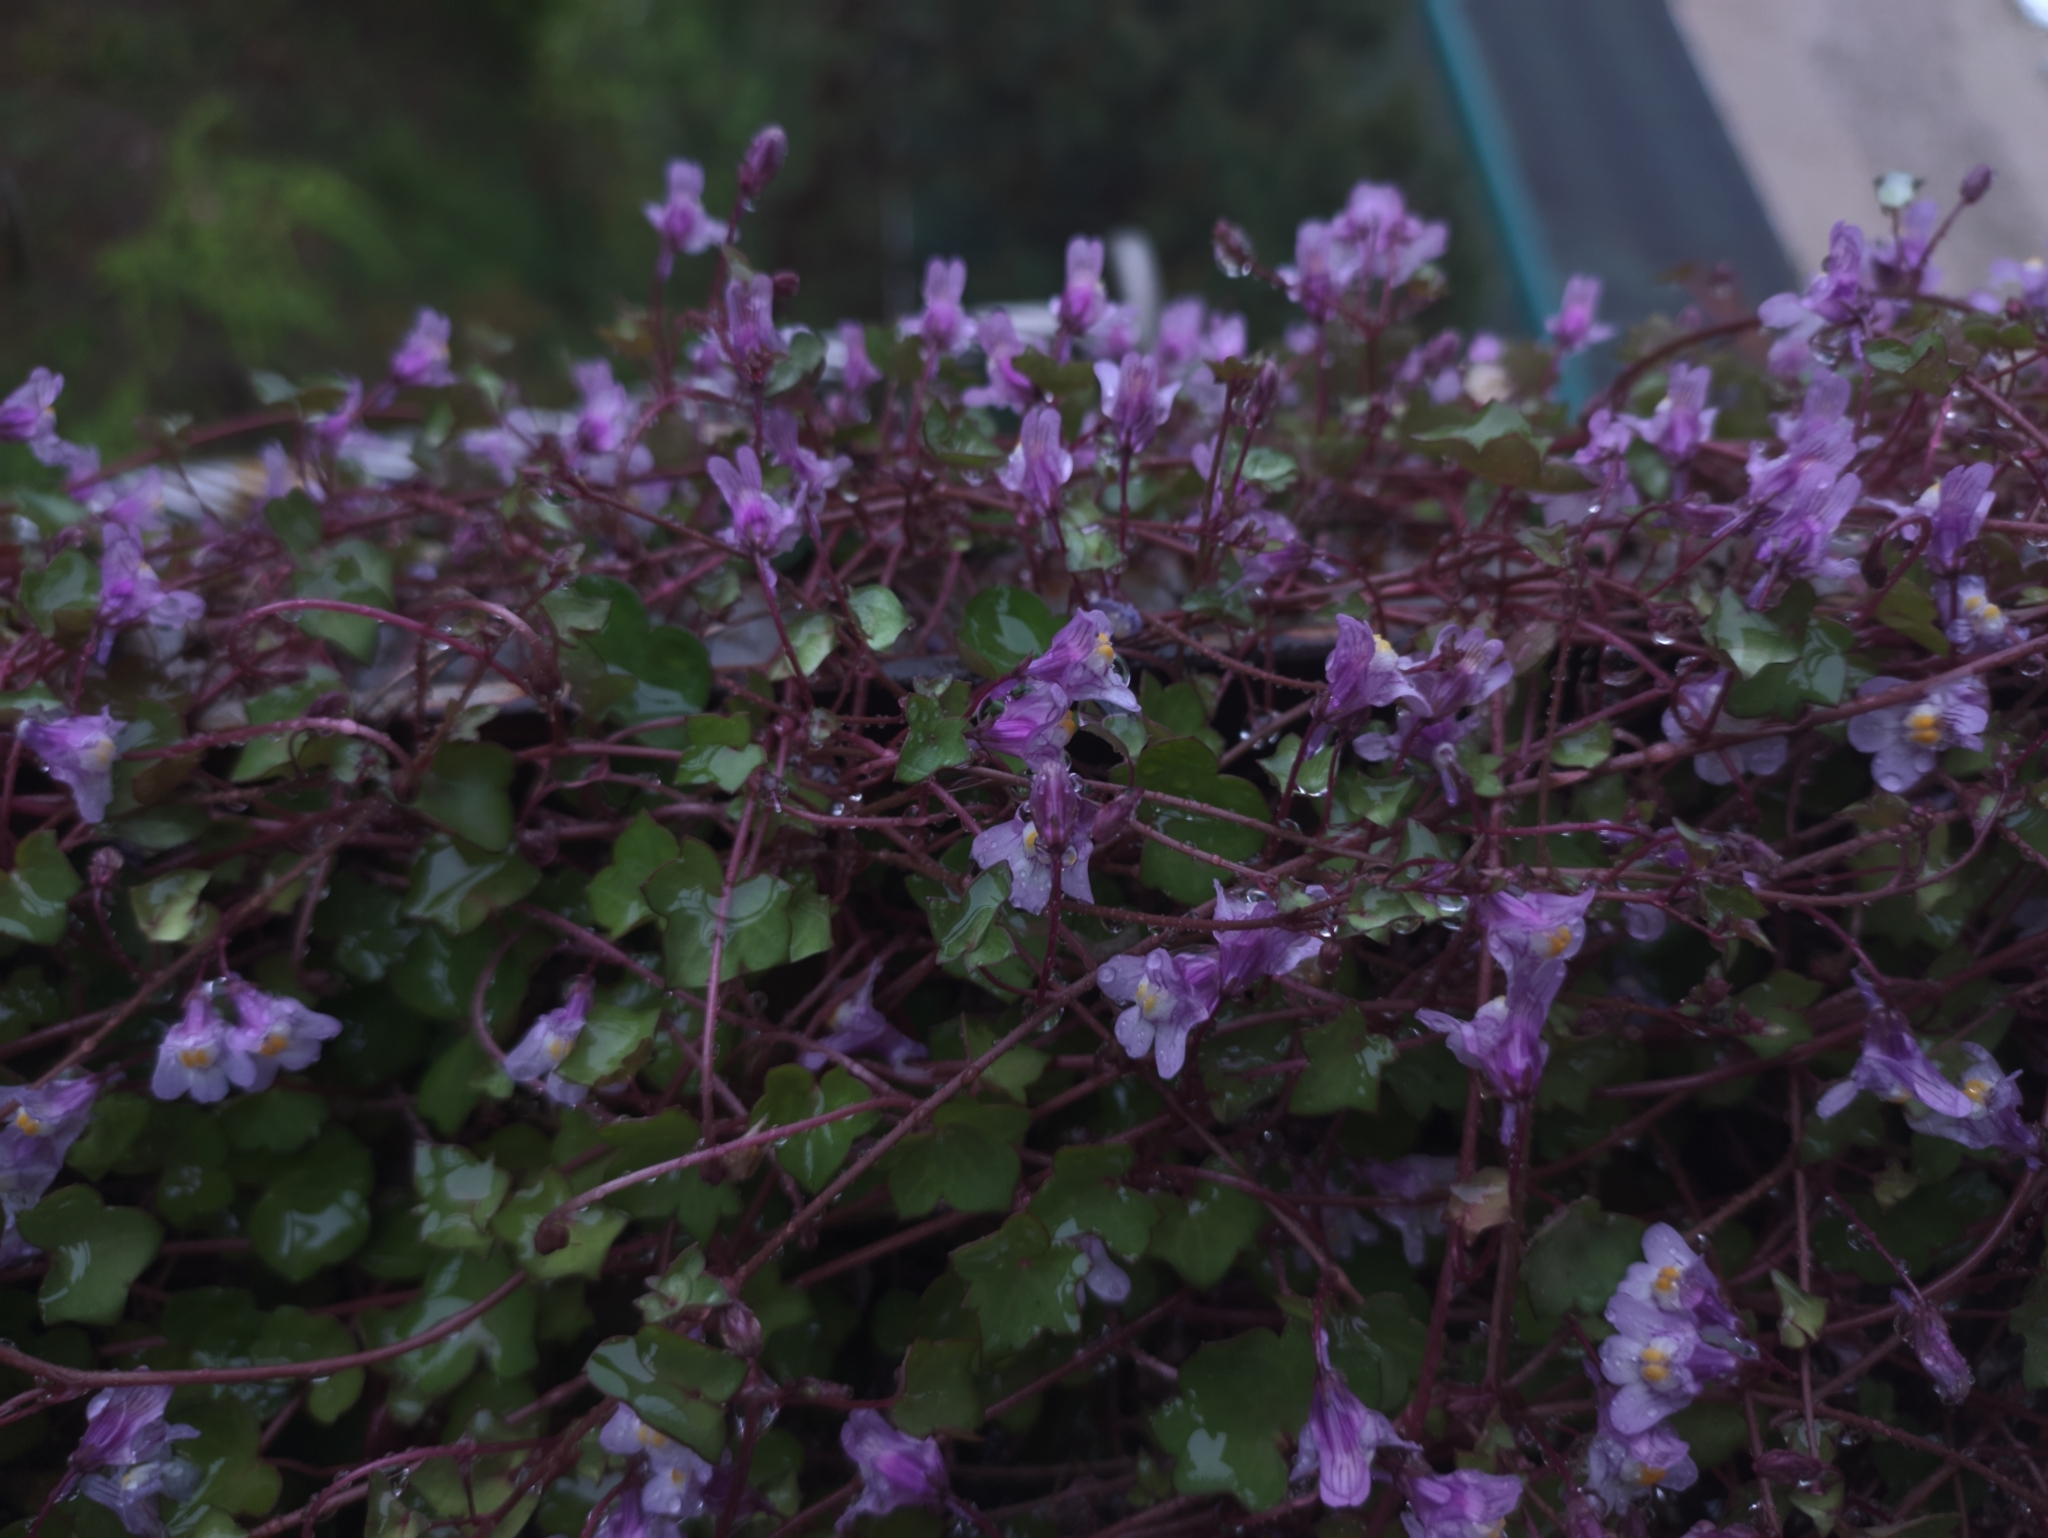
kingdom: Plantae
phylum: Tracheophyta
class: Magnoliopsida
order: Lamiales
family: Plantaginaceae
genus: Cymbalaria
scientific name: Cymbalaria muralis
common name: Ivy-leaved toadflax
